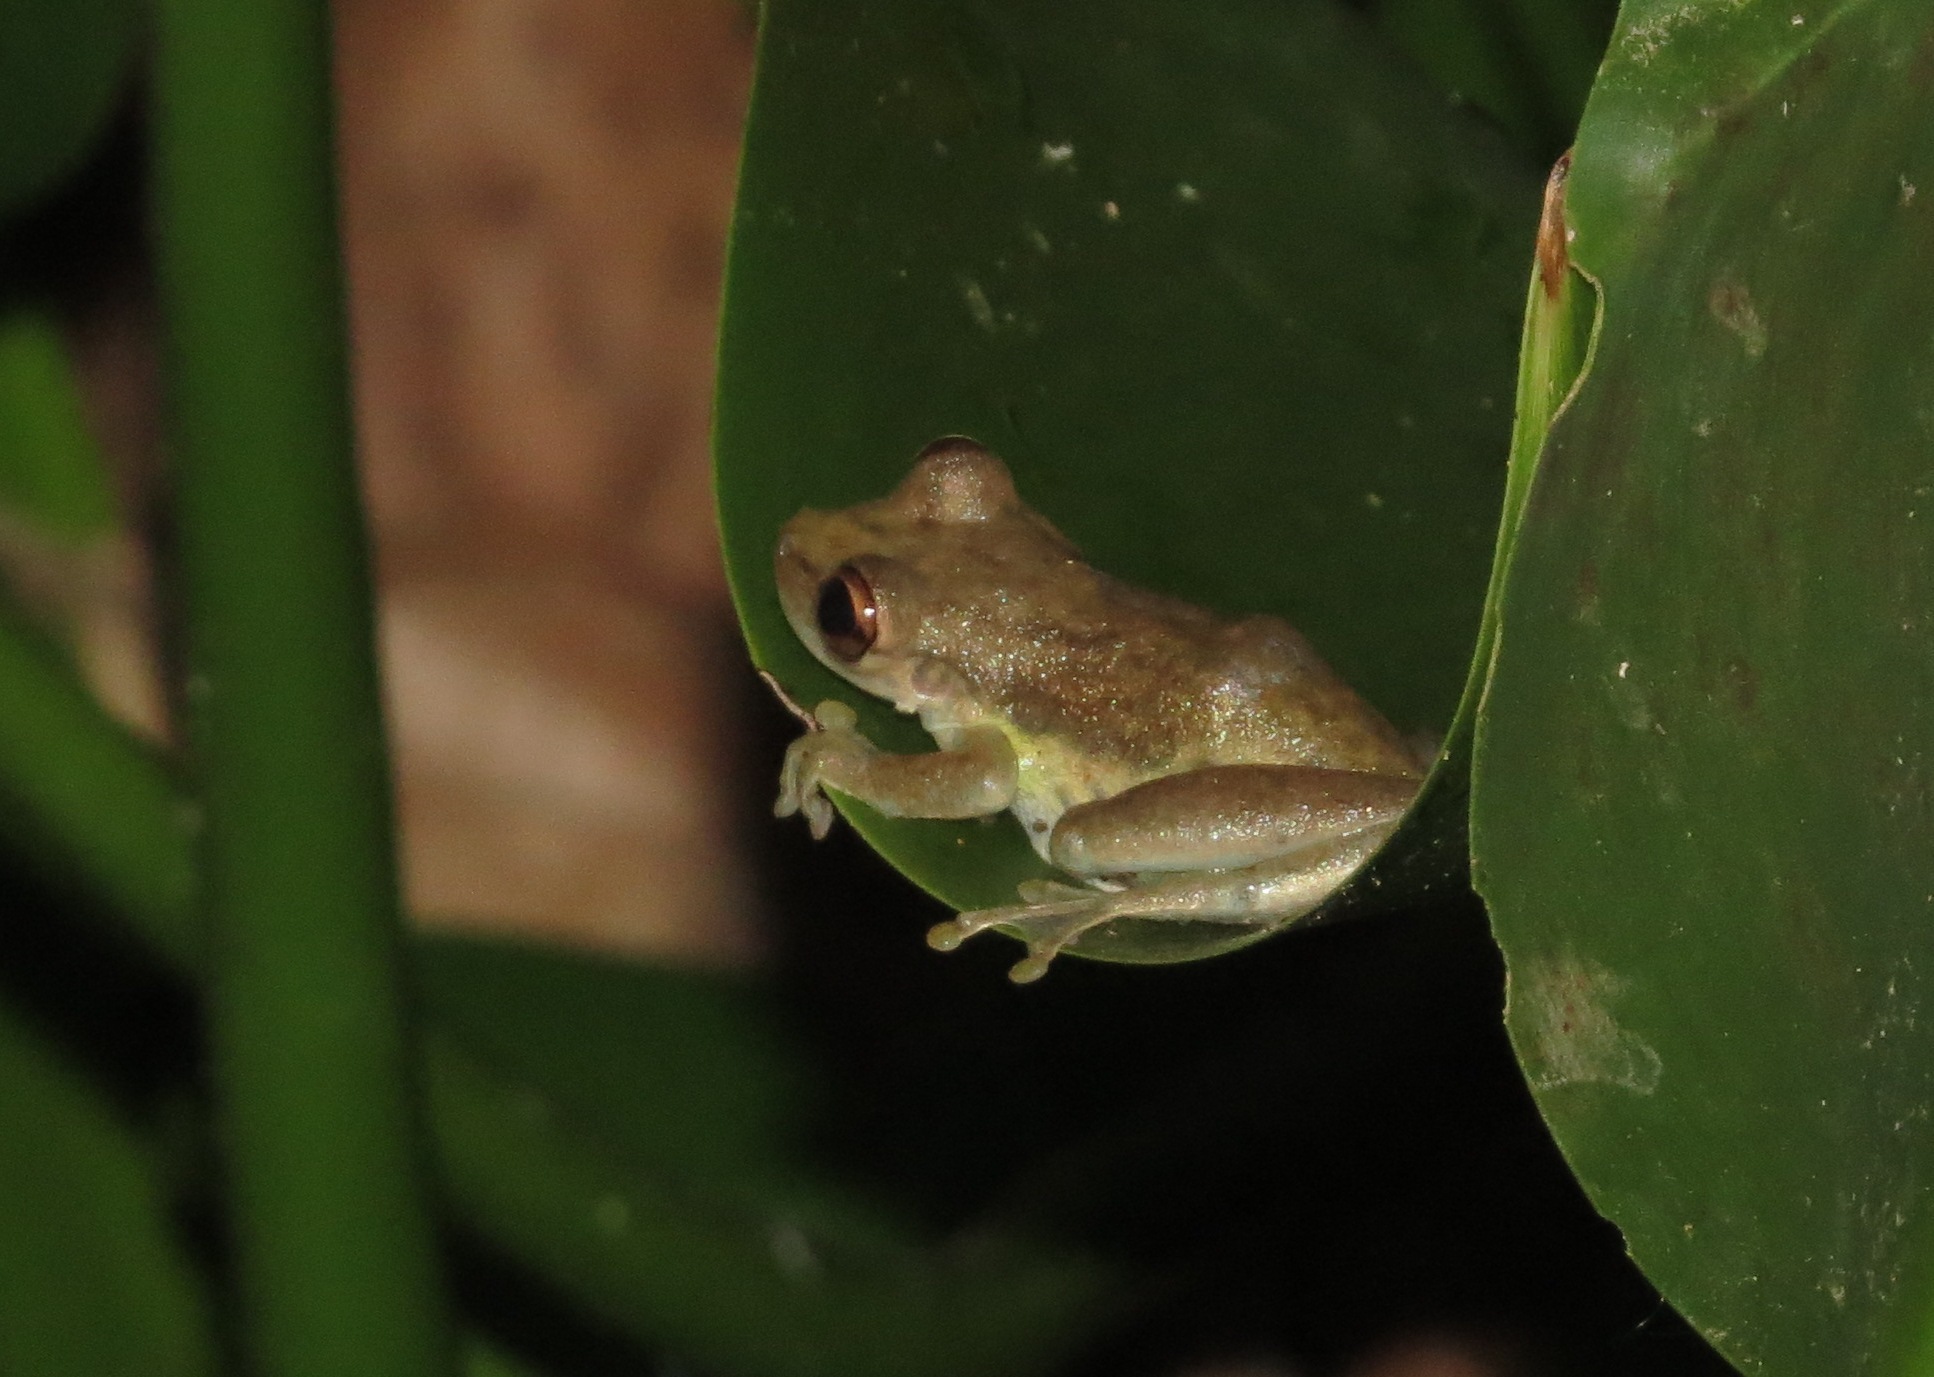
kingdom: Animalia
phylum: Chordata
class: Amphibia
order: Anura
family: Hylidae
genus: Scinax
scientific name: Scinax elaeochroa
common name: Sipurio snouted treefrog
